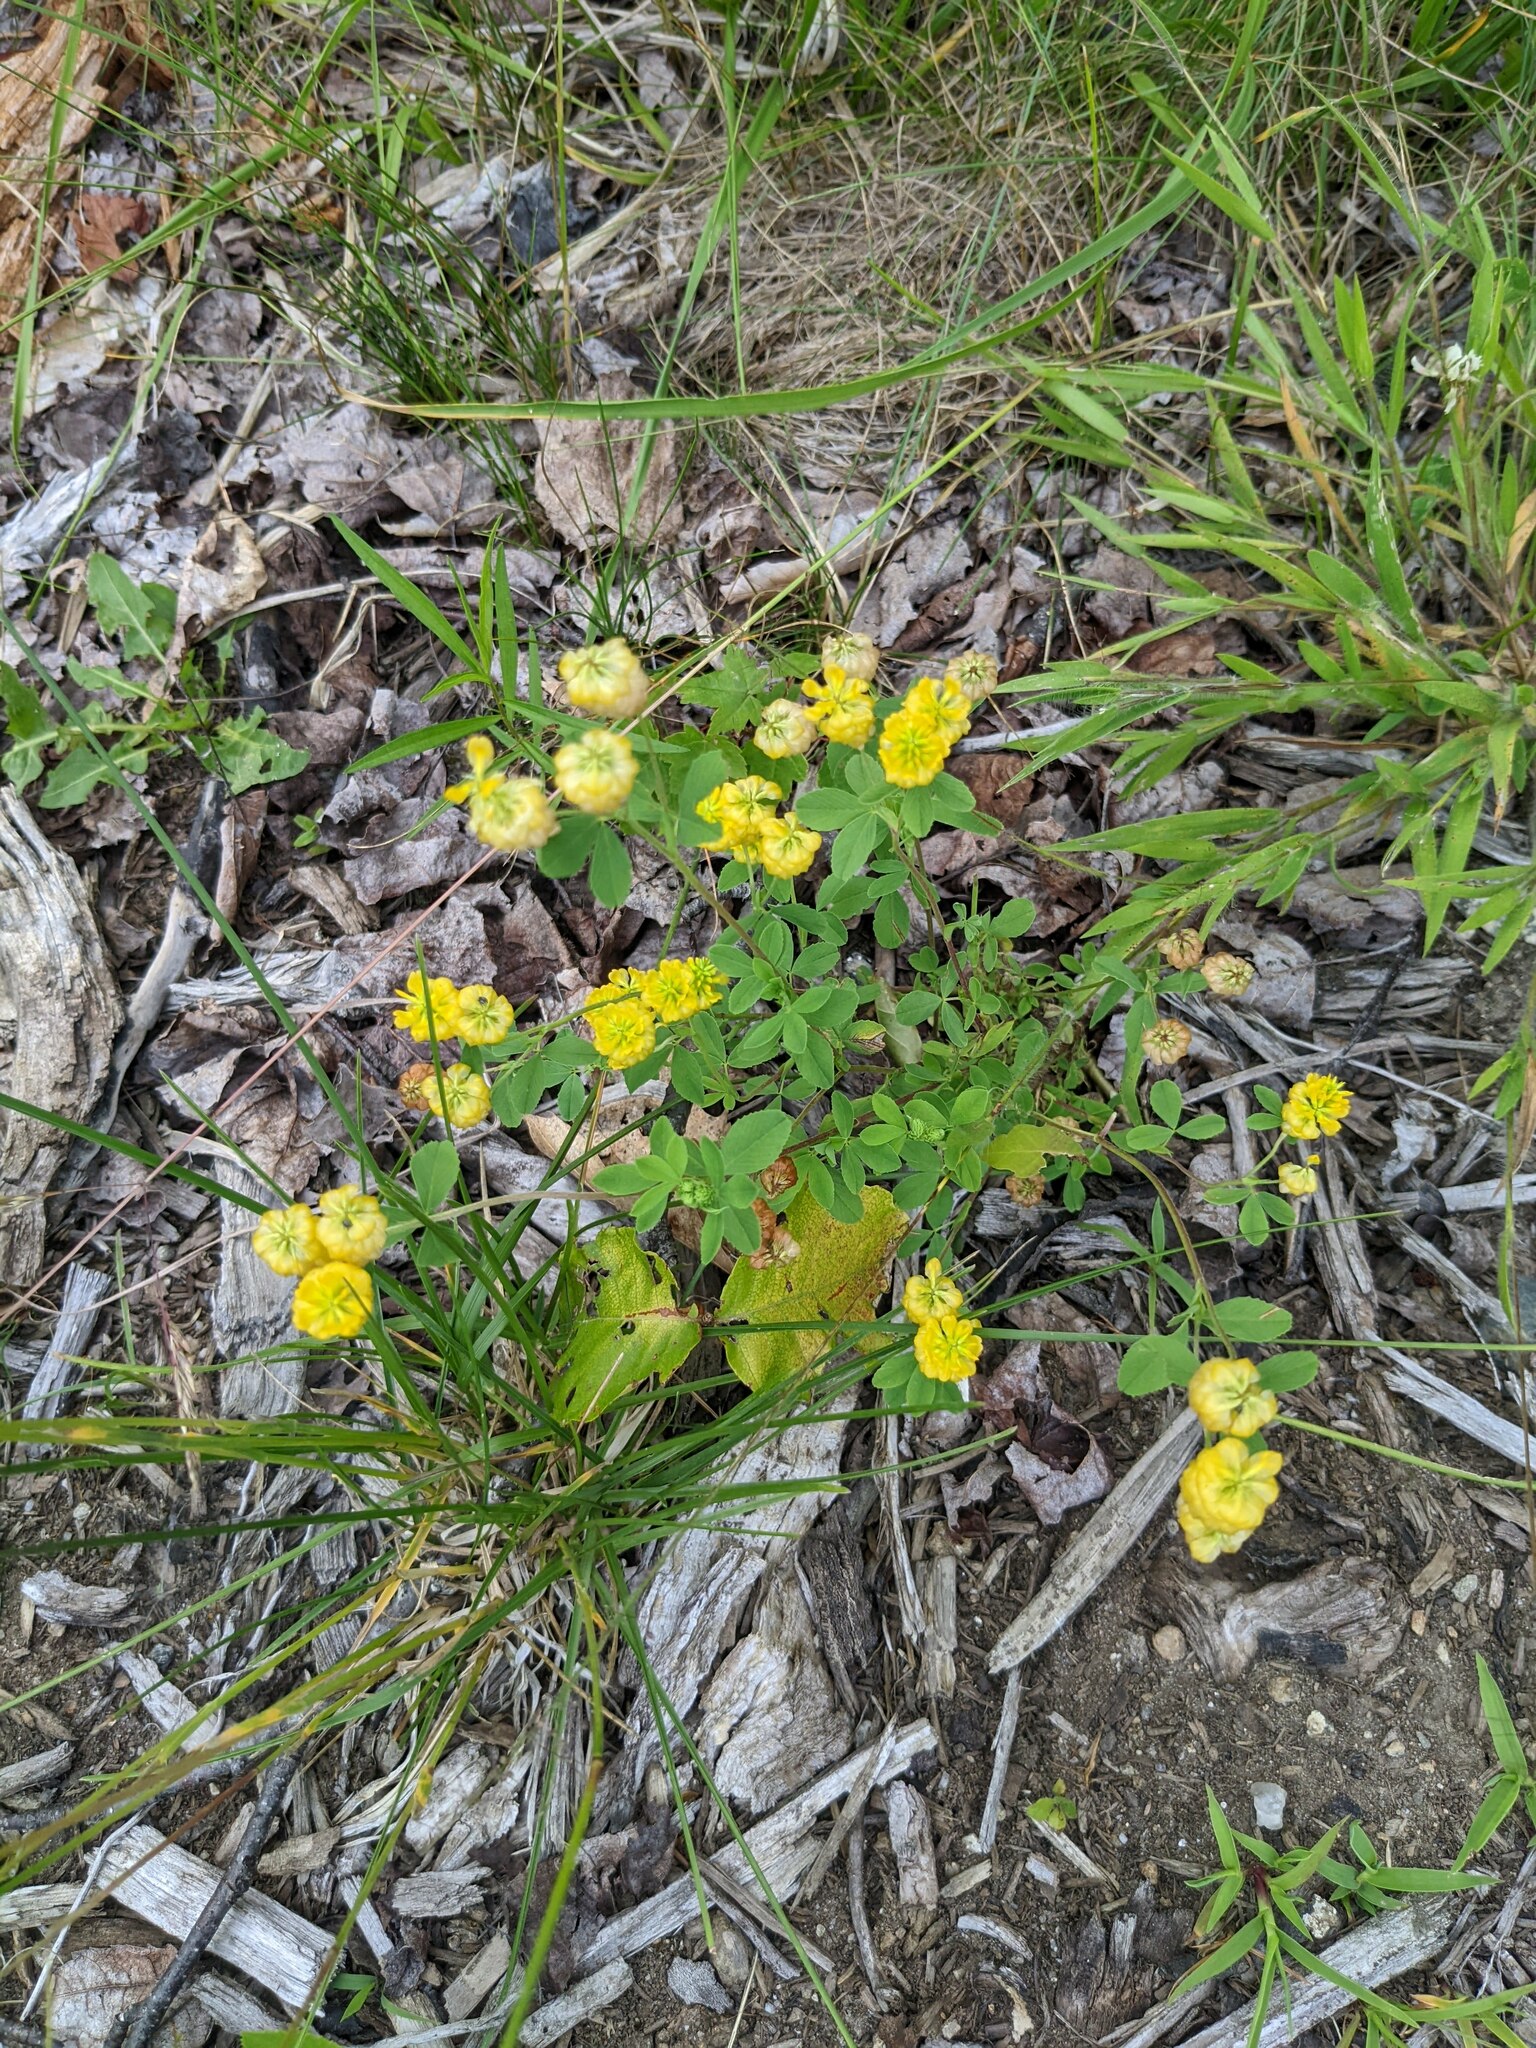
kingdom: Plantae
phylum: Tracheophyta
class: Magnoliopsida
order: Fabales
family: Fabaceae
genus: Trifolium
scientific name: Trifolium aureum
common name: Golden clover
